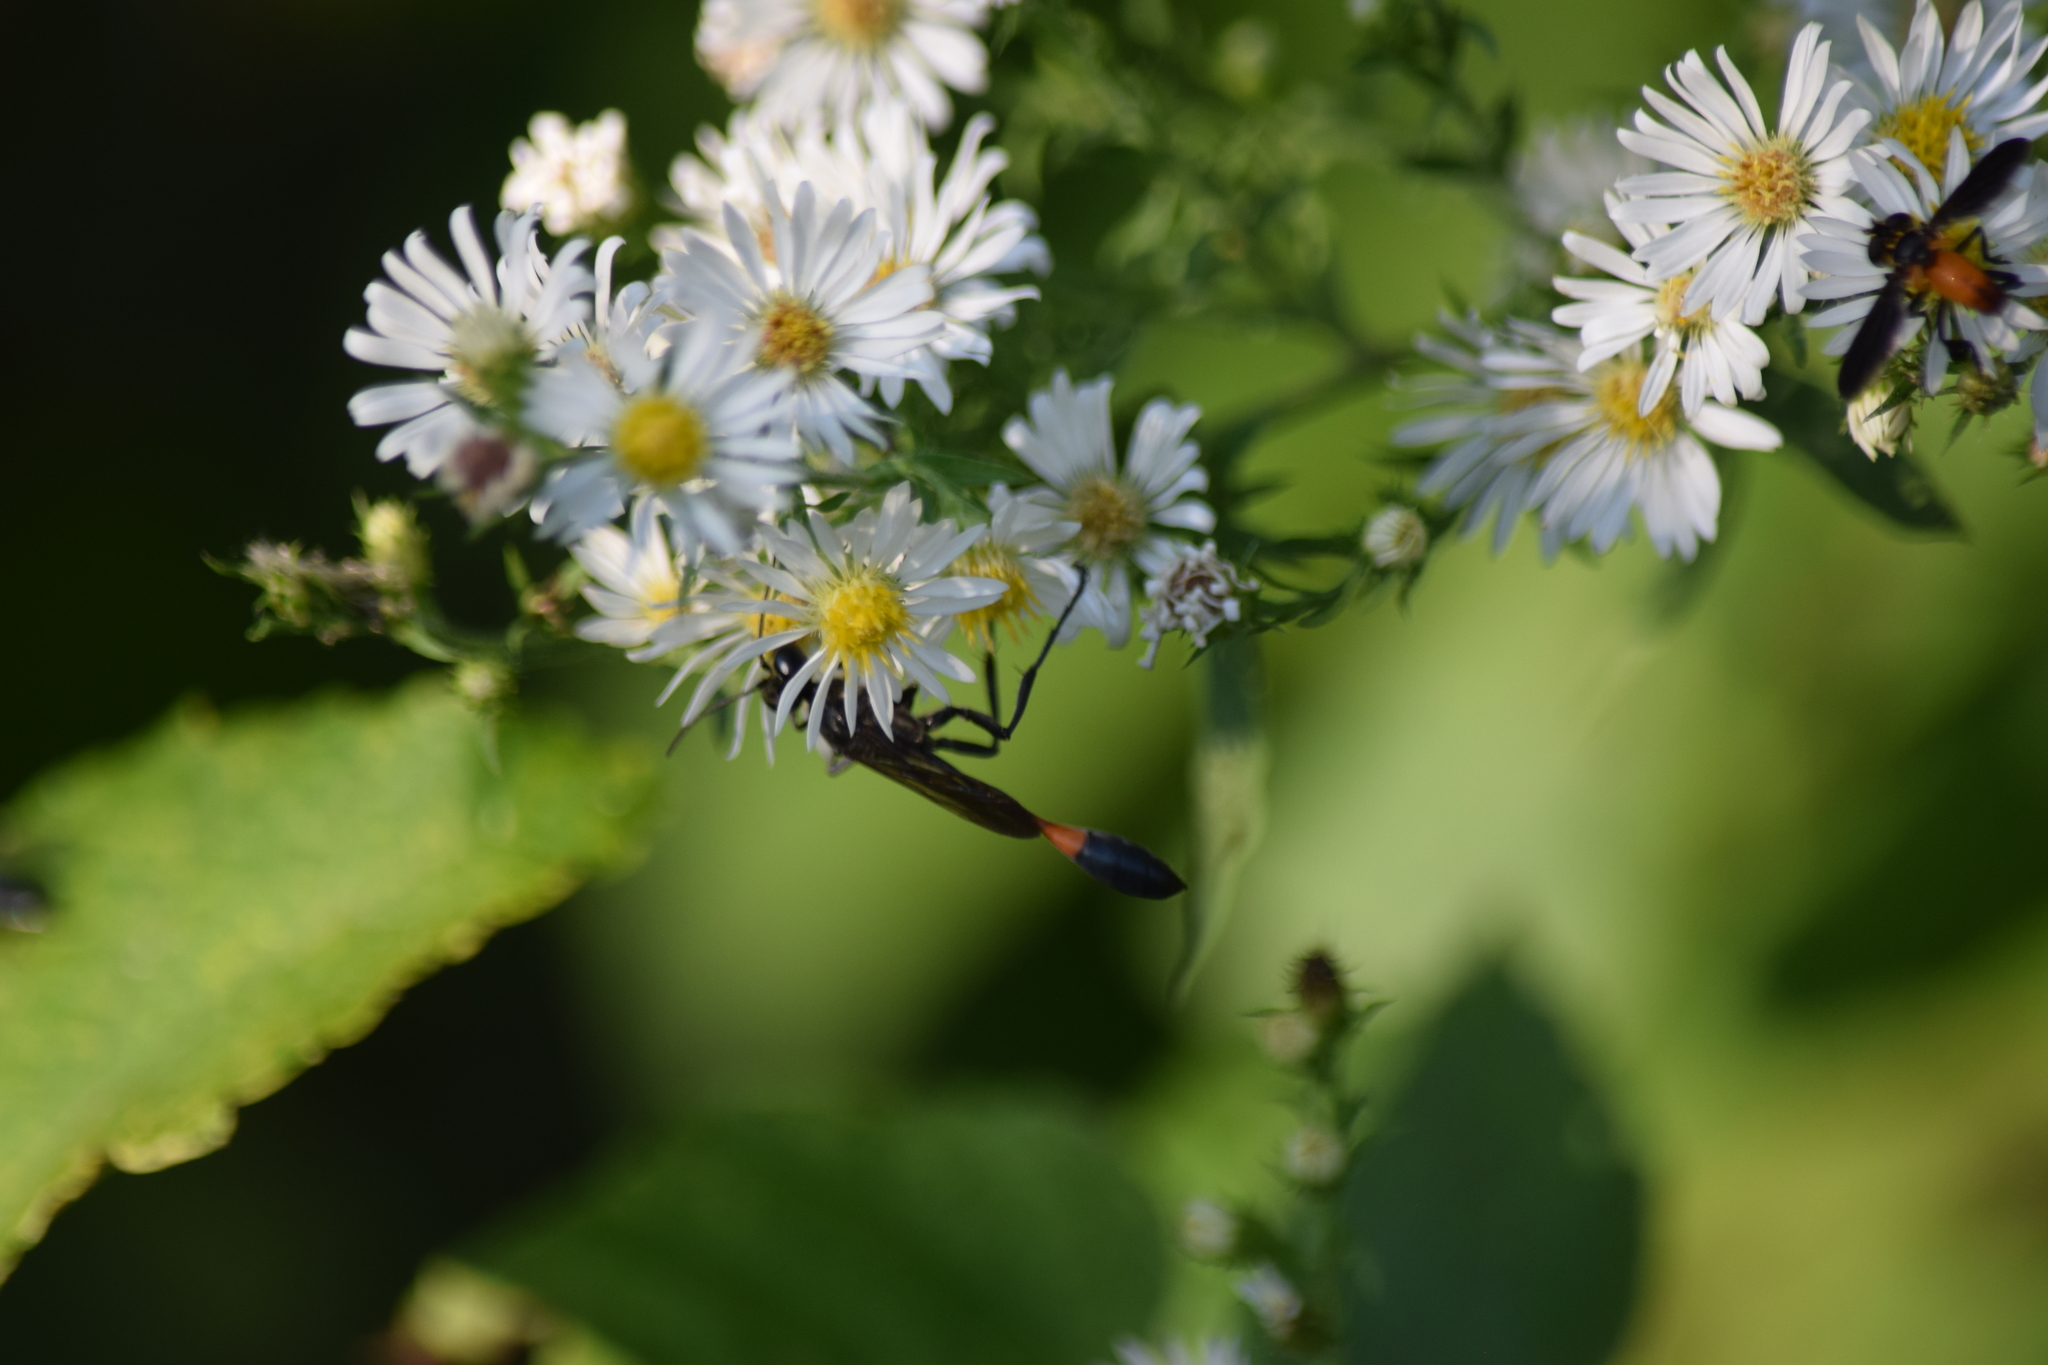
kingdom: Animalia
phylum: Arthropoda
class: Insecta
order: Hymenoptera
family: Sphecidae
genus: Ammophila
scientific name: Ammophila
